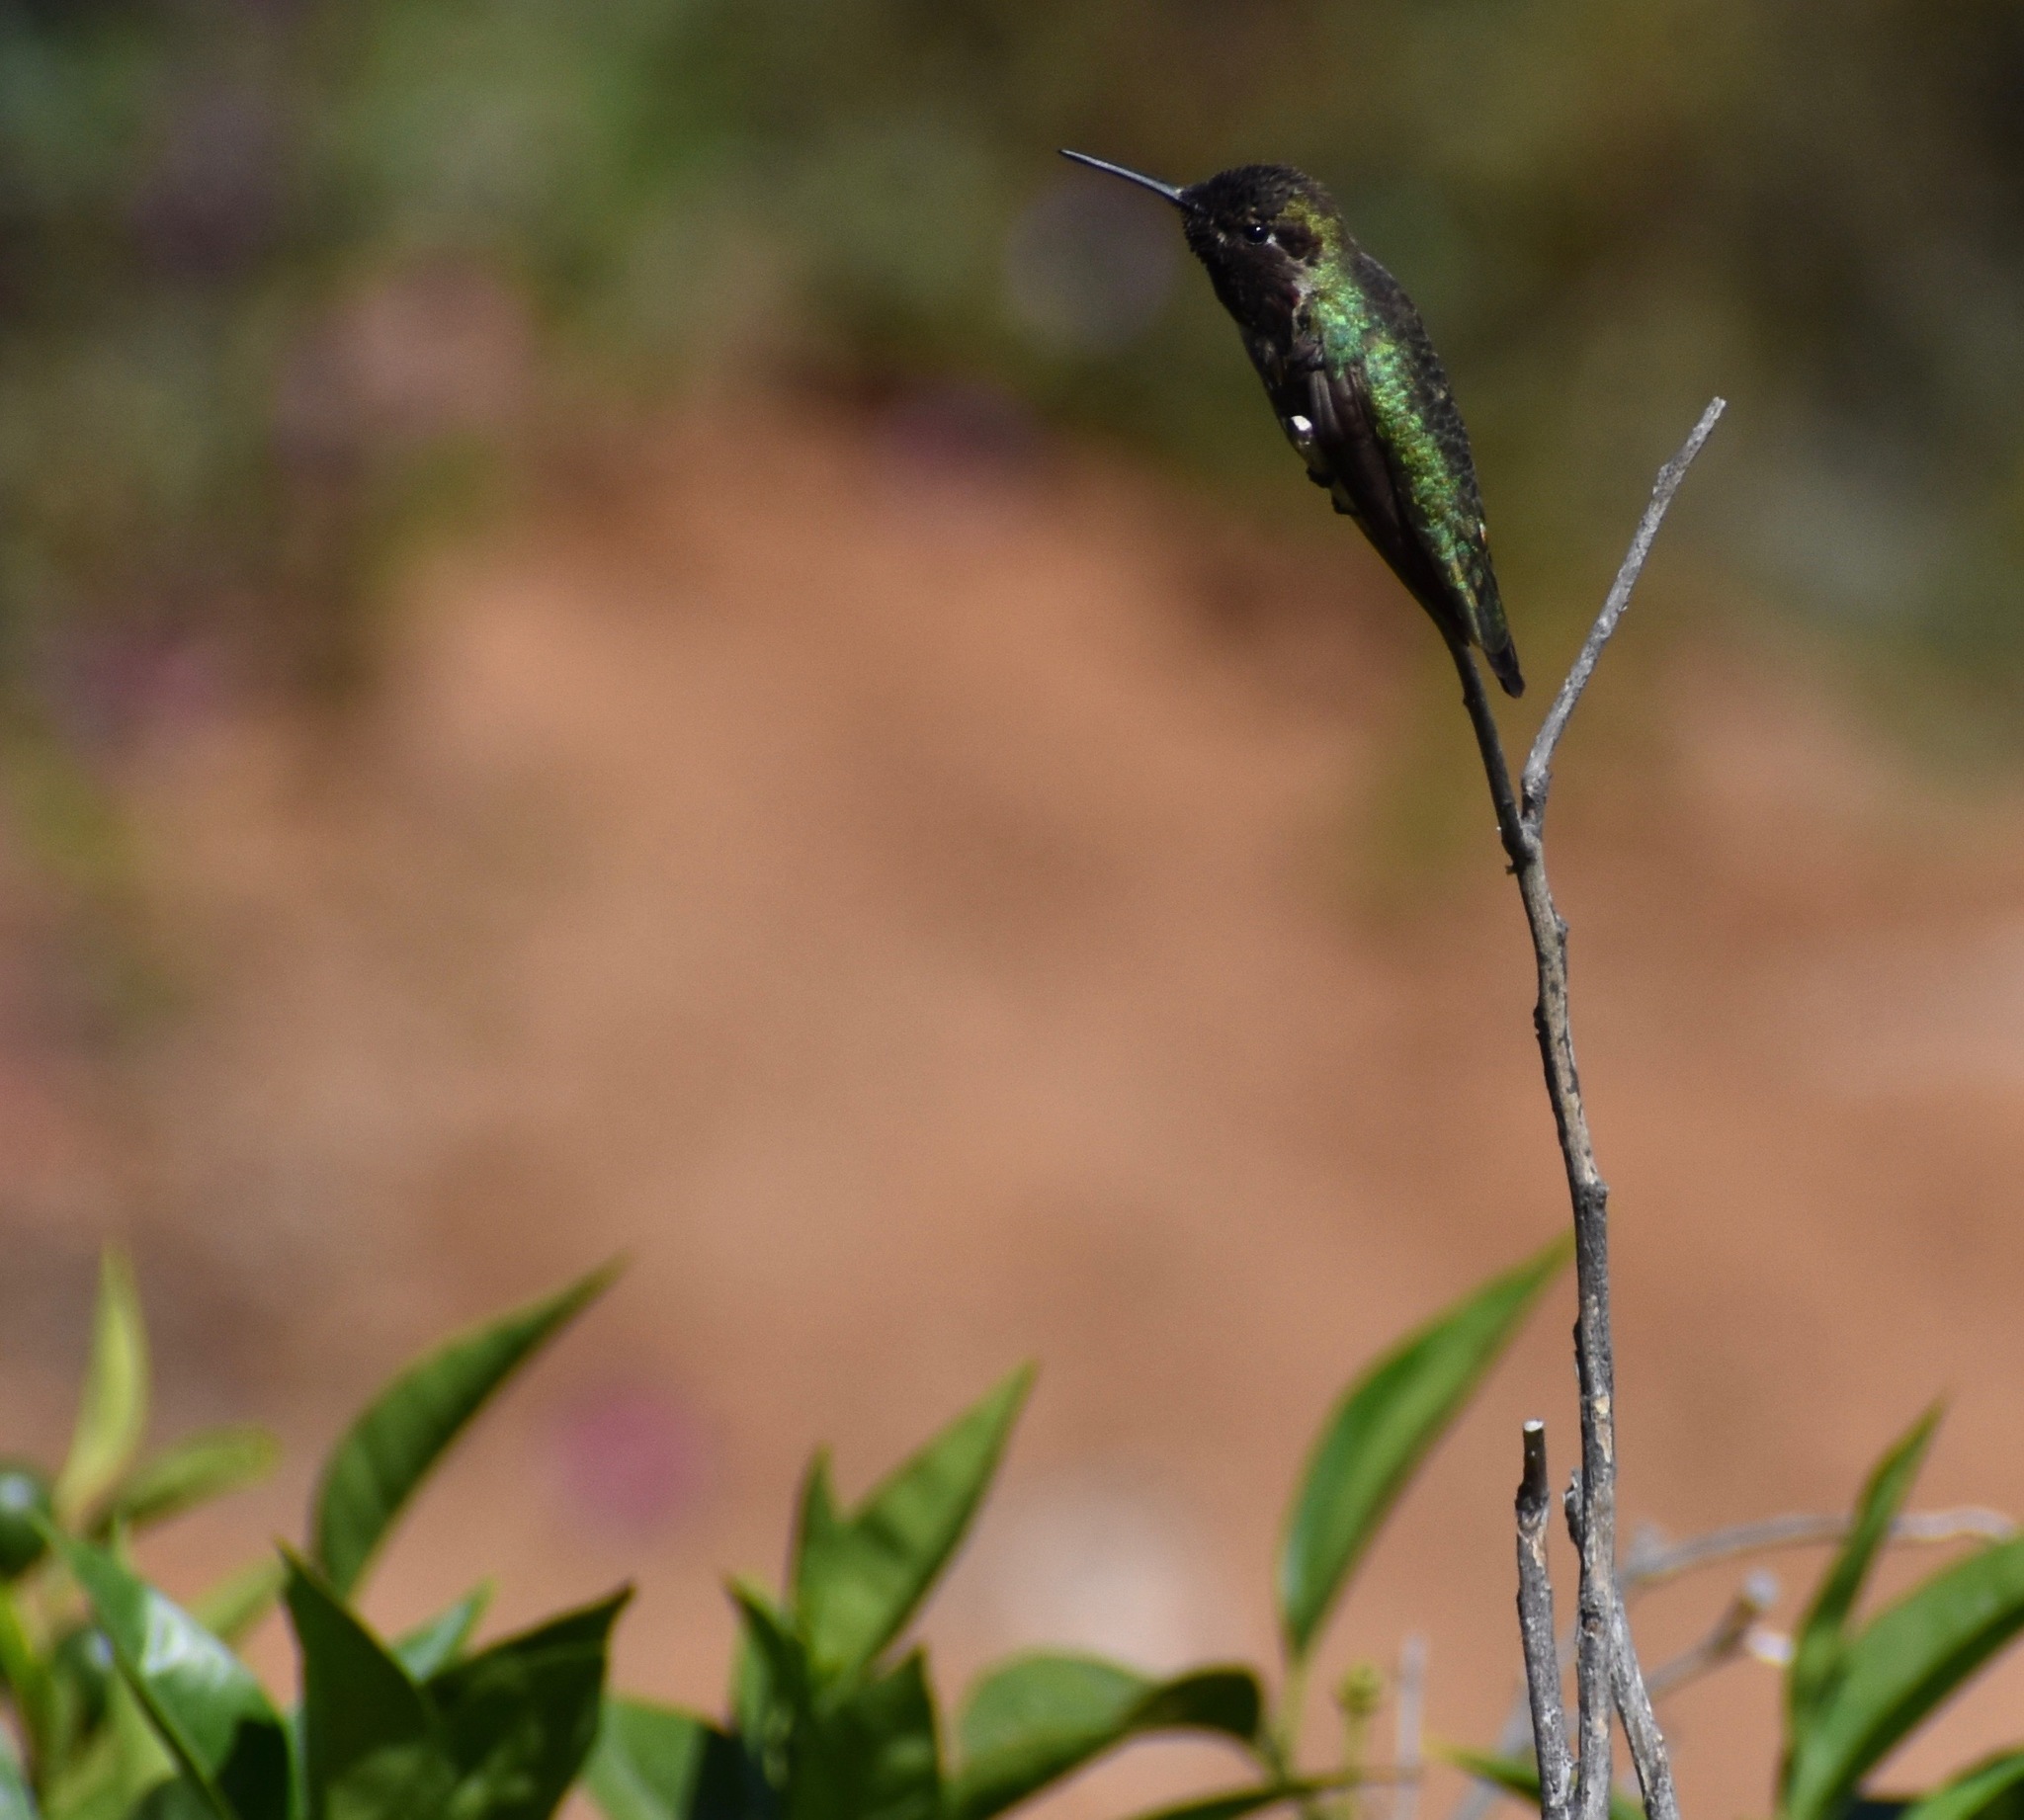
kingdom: Animalia
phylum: Chordata
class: Aves
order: Apodiformes
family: Trochilidae
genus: Calypte
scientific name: Calypte anna
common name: Anna's hummingbird
